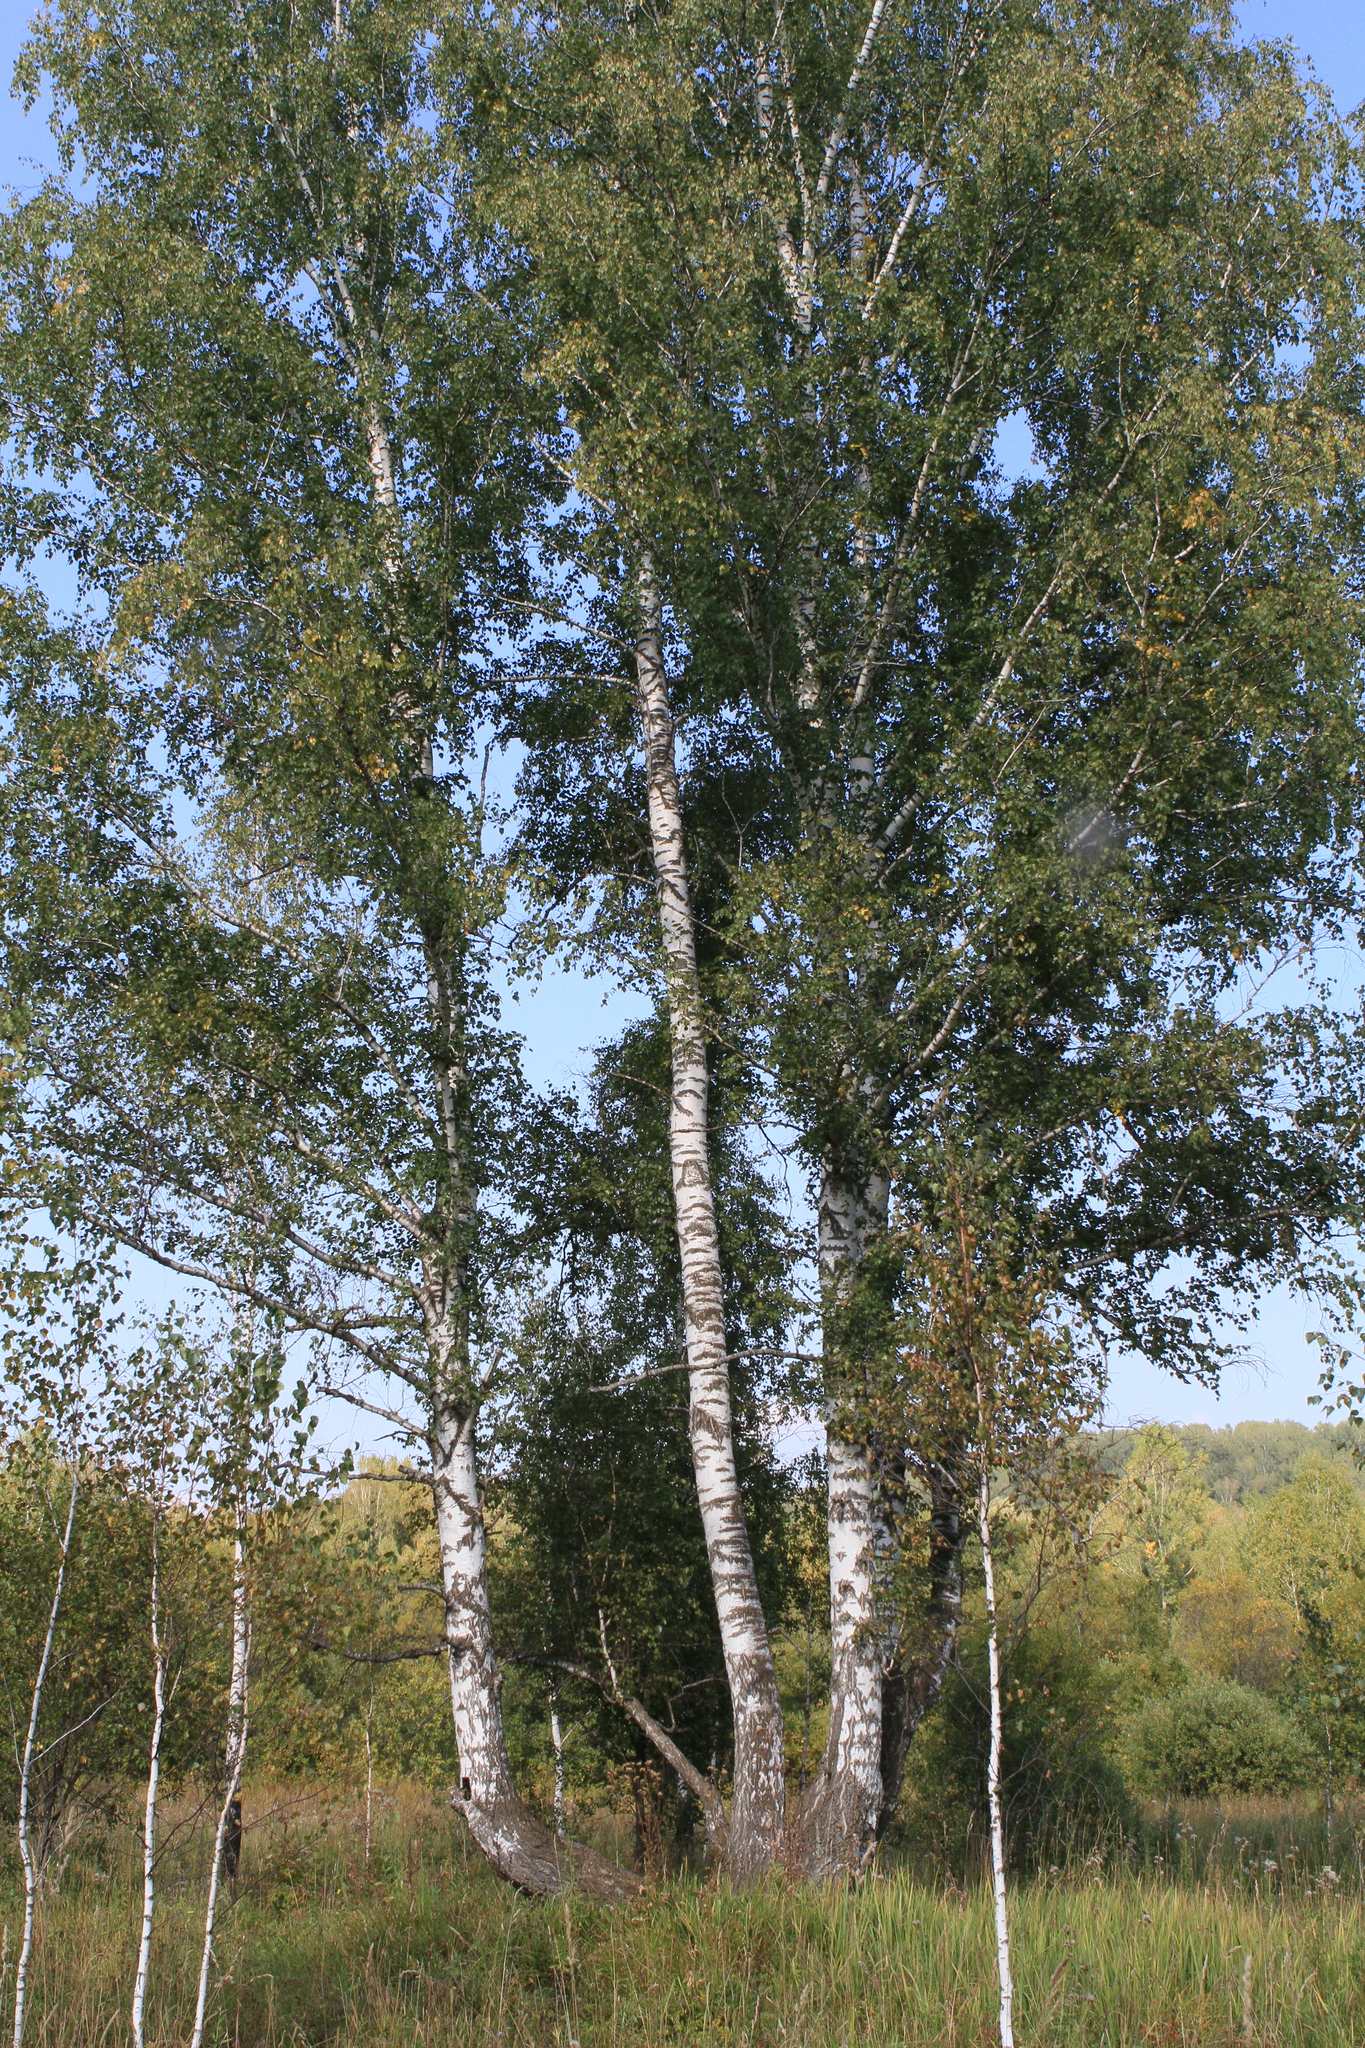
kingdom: Plantae
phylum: Tracheophyta
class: Magnoliopsida
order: Fagales
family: Betulaceae
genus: Betula
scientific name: Betula pendula
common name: Silver birch
